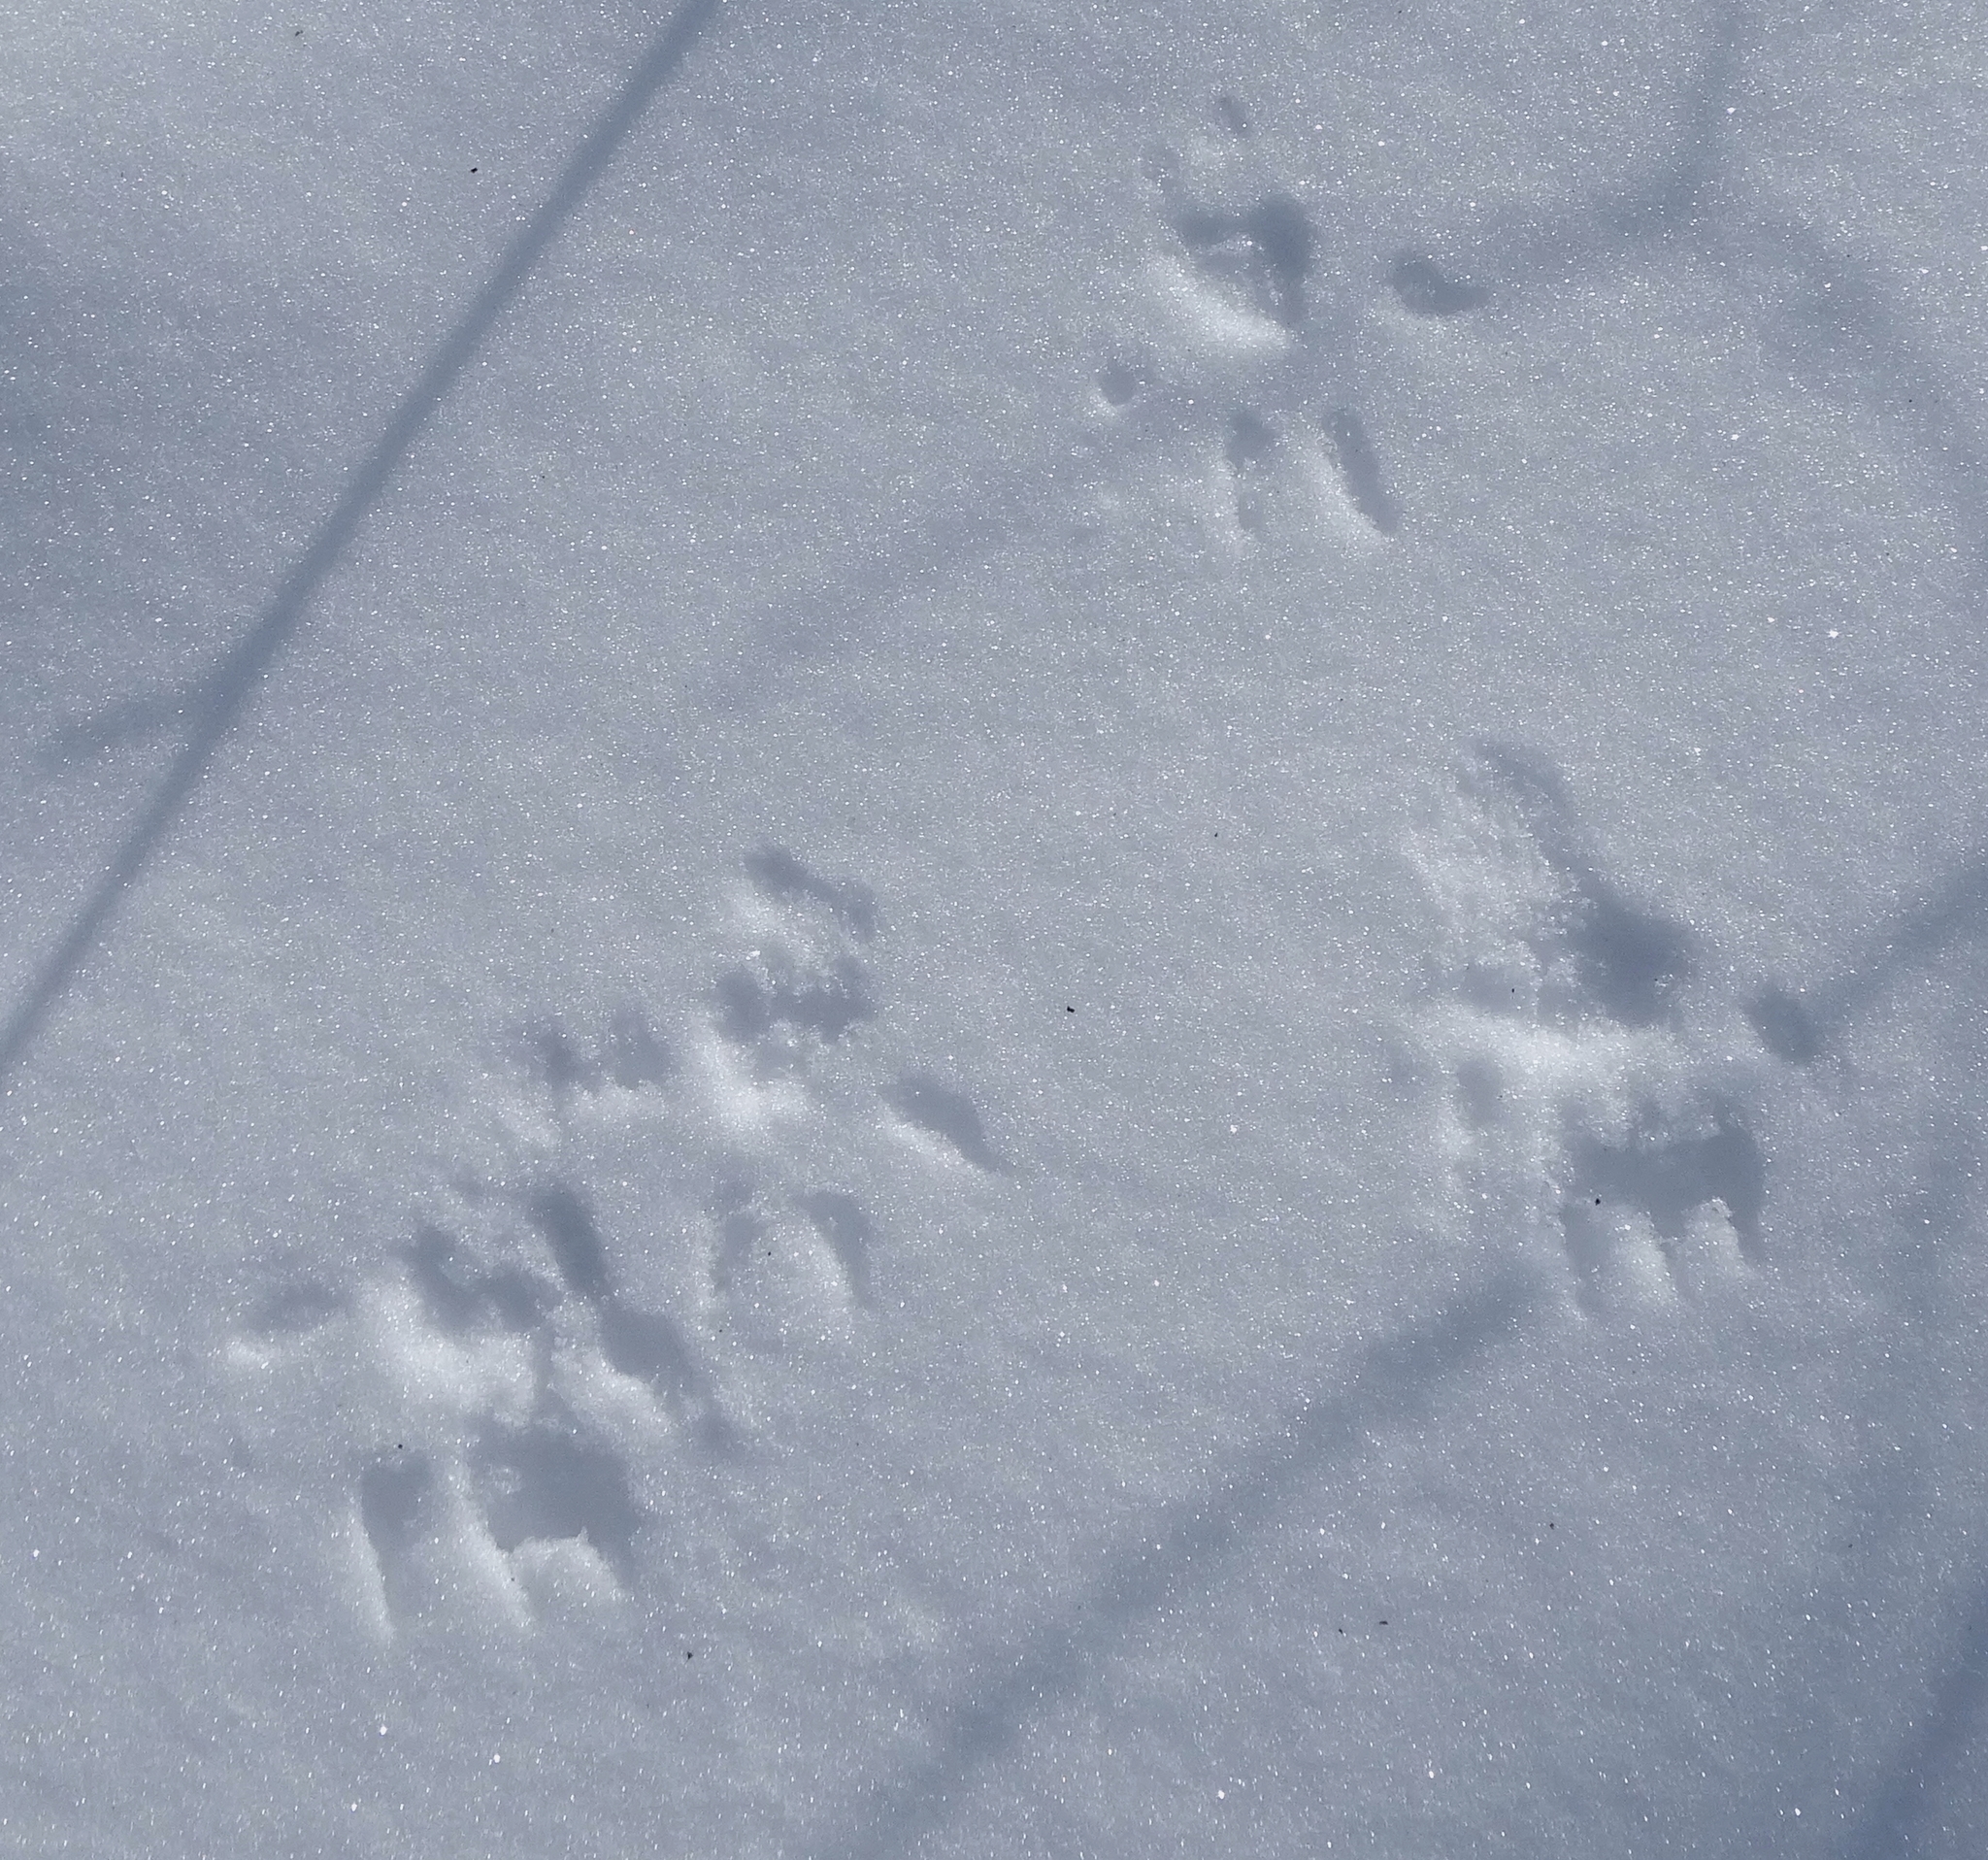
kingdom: Animalia
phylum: Chordata
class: Mammalia
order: Rodentia
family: Cricetidae
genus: Peromyscus
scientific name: Peromyscus
